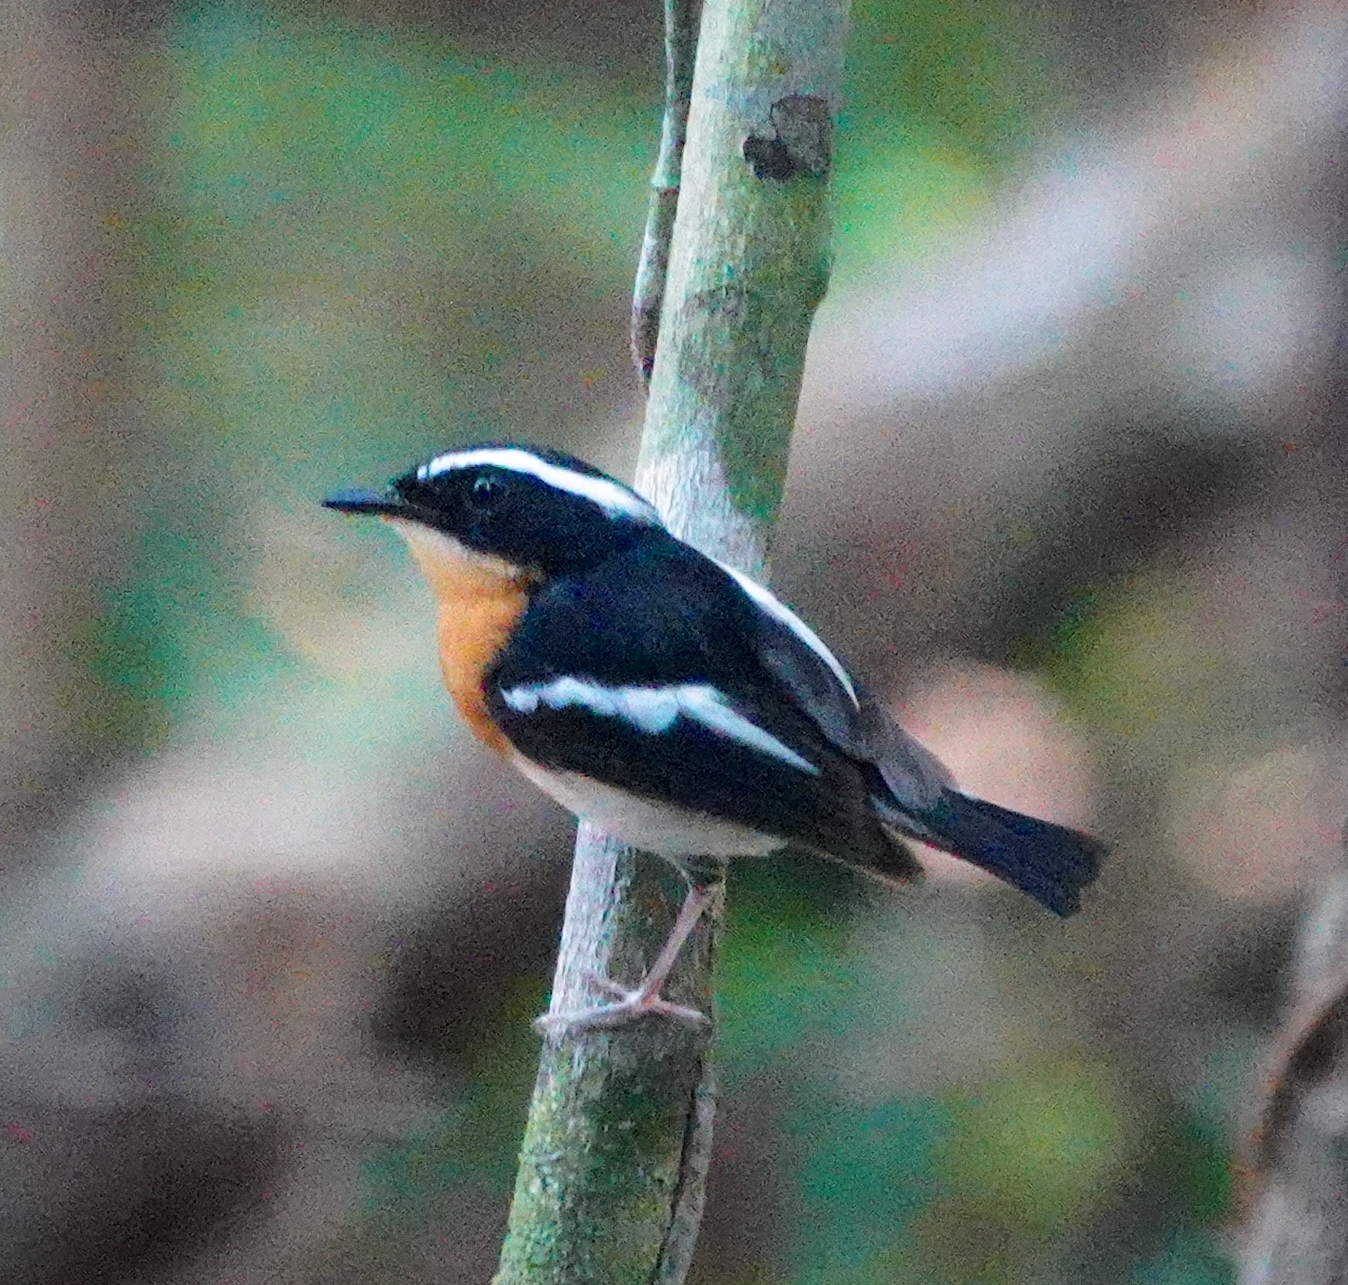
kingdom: Animalia
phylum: Chordata
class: Aves
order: Passeriformes
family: Muscicapidae
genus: Ficedula
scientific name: Ficedula riedeli
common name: Tanimbar flycatcher
